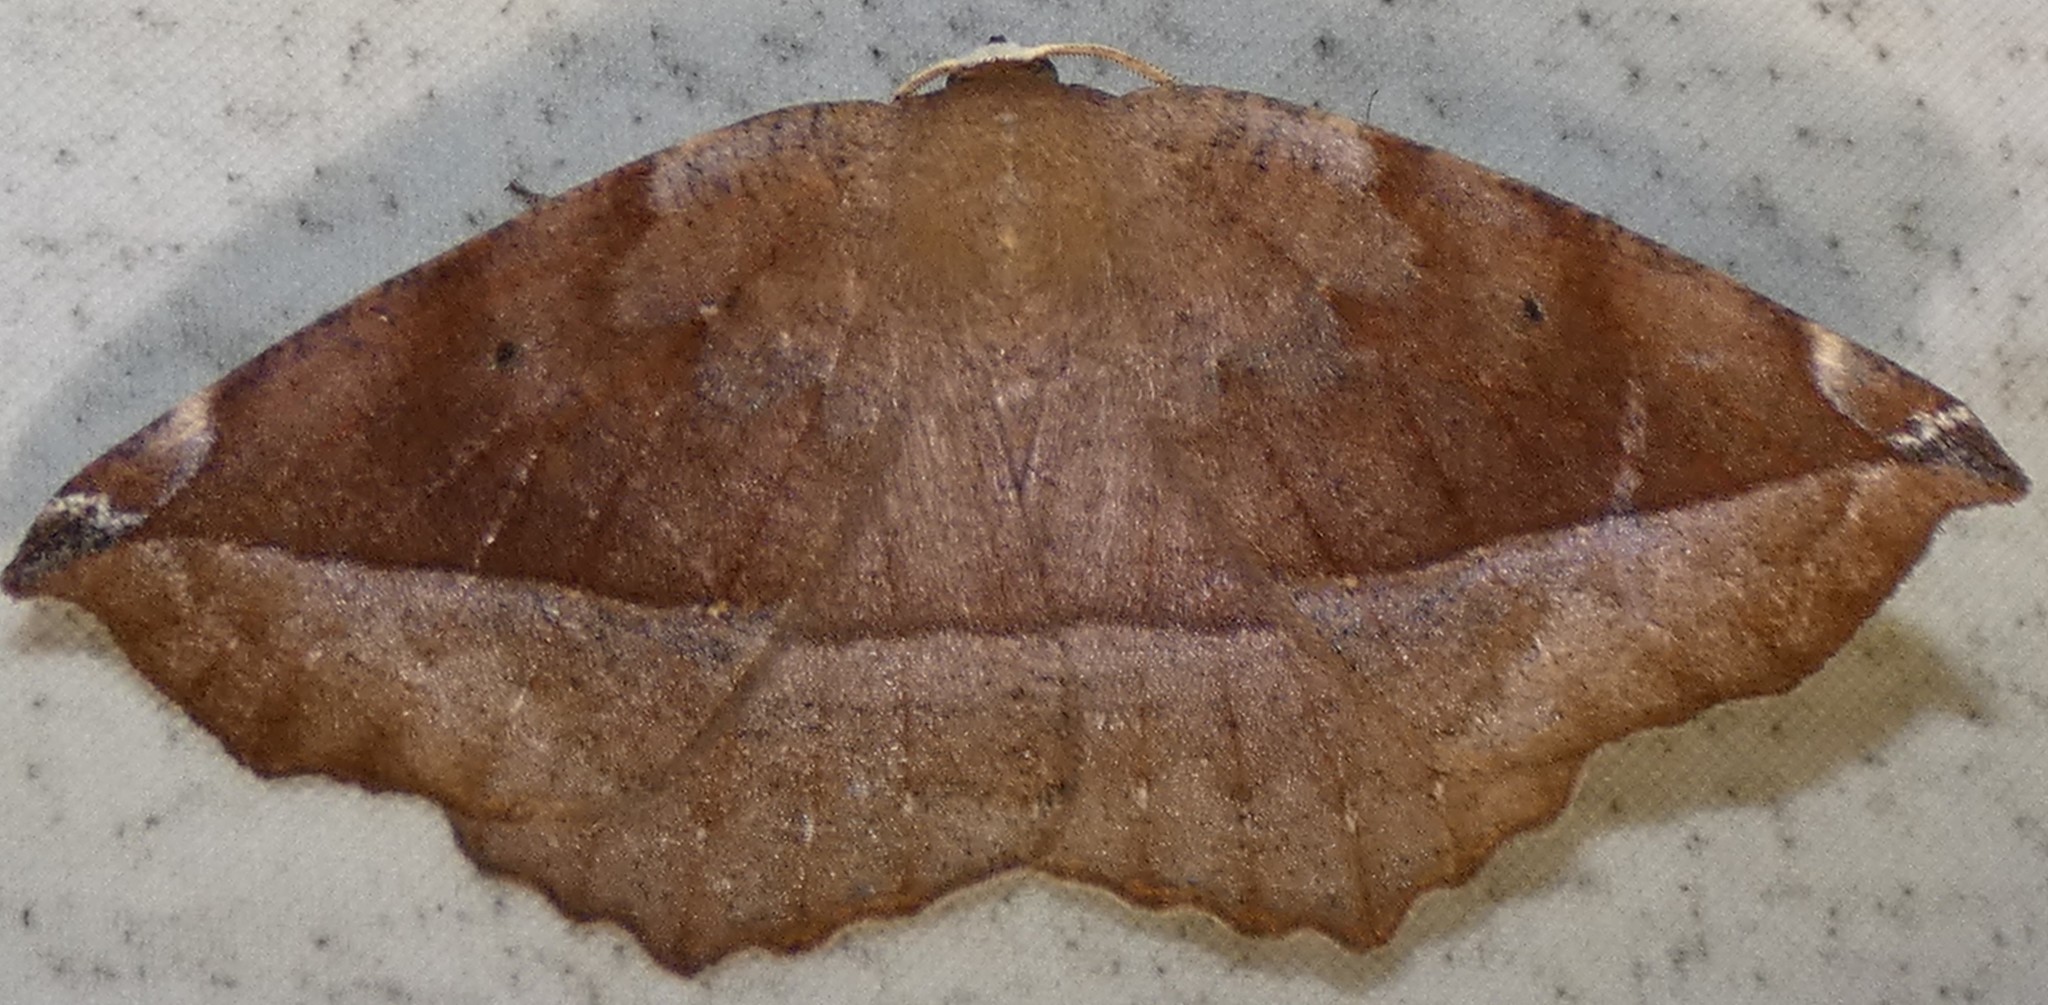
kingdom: Animalia
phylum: Arthropoda
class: Insecta
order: Lepidoptera
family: Geometridae
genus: Eutrapela
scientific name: Eutrapela clemataria
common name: Curved-toothed geometer
